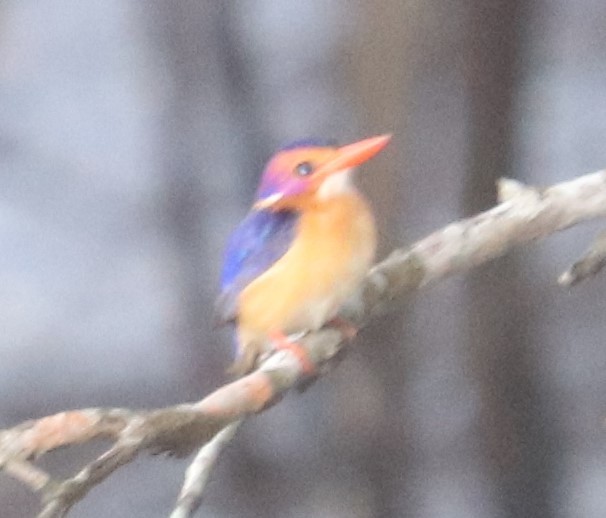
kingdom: Animalia
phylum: Chordata
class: Aves
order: Coraciiformes
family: Alcedinidae
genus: Ispidina
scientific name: Ispidina picta
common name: African pygmy-kingfisher
